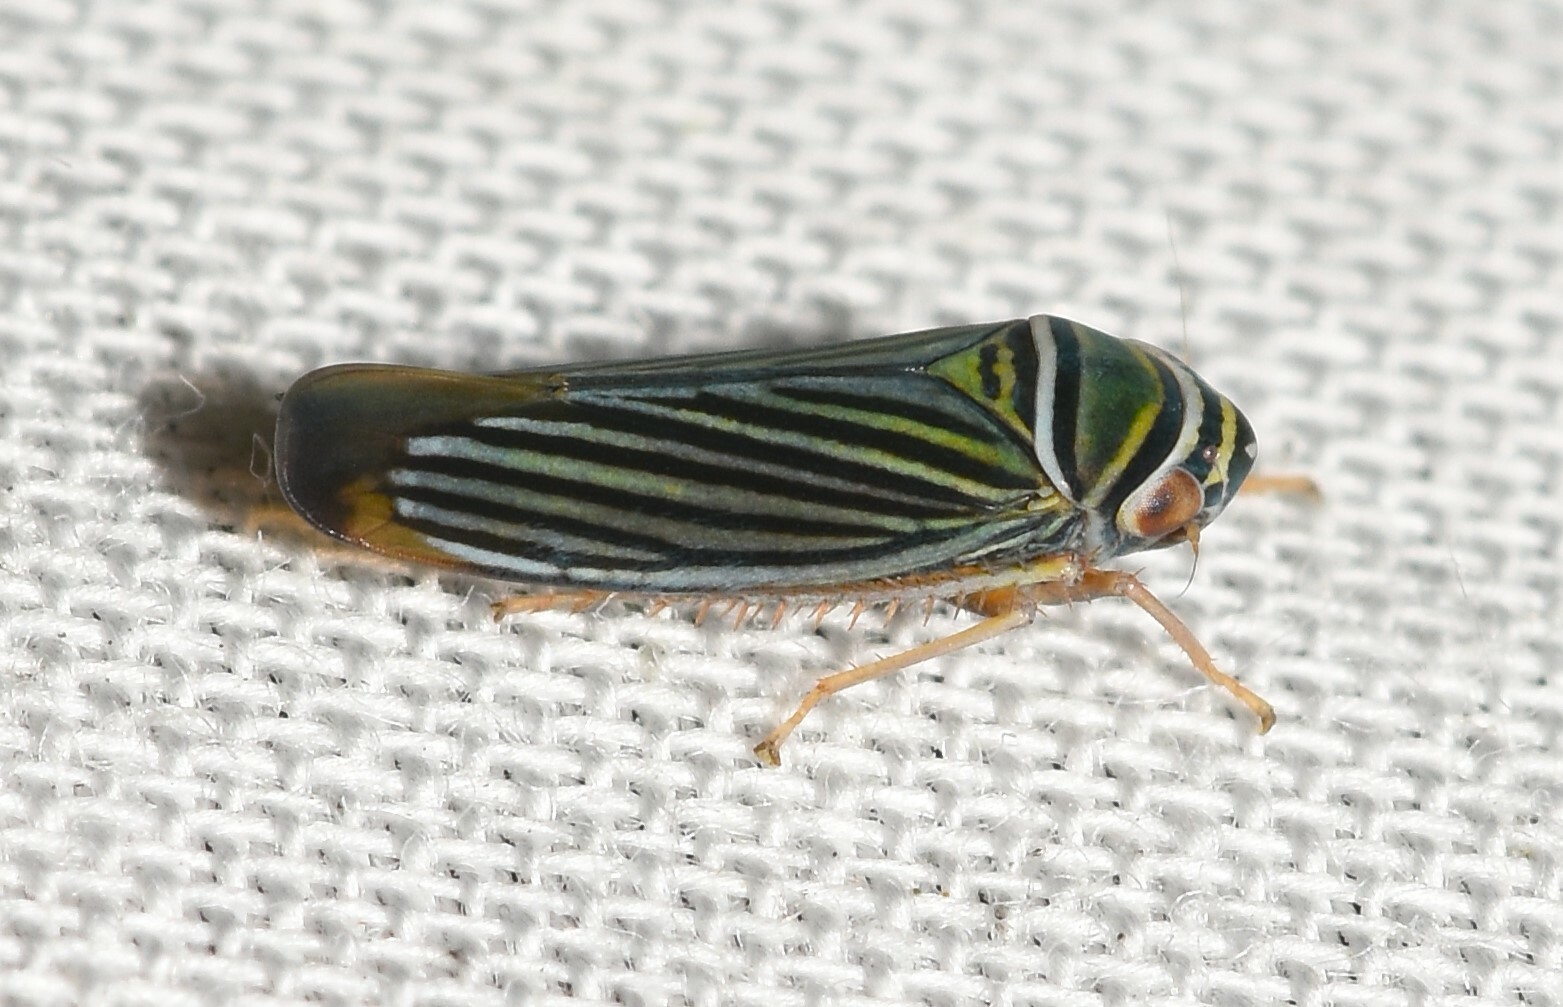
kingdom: Animalia
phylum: Arthropoda
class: Insecta
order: Hemiptera
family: Cicadellidae
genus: Tylozygus
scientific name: Tylozygus bifidus
